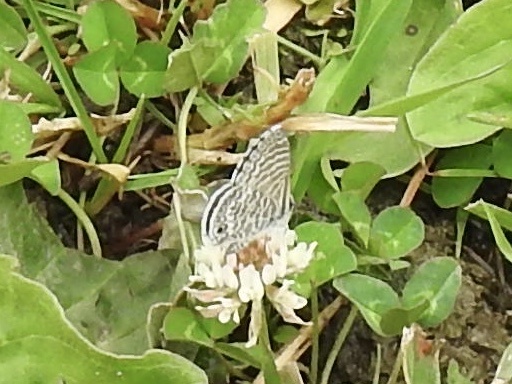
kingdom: Animalia
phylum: Arthropoda
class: Insecta
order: Lepidoptera
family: Lycaenidae
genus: Leptotes
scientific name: Leptotes marina
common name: Marine blue
